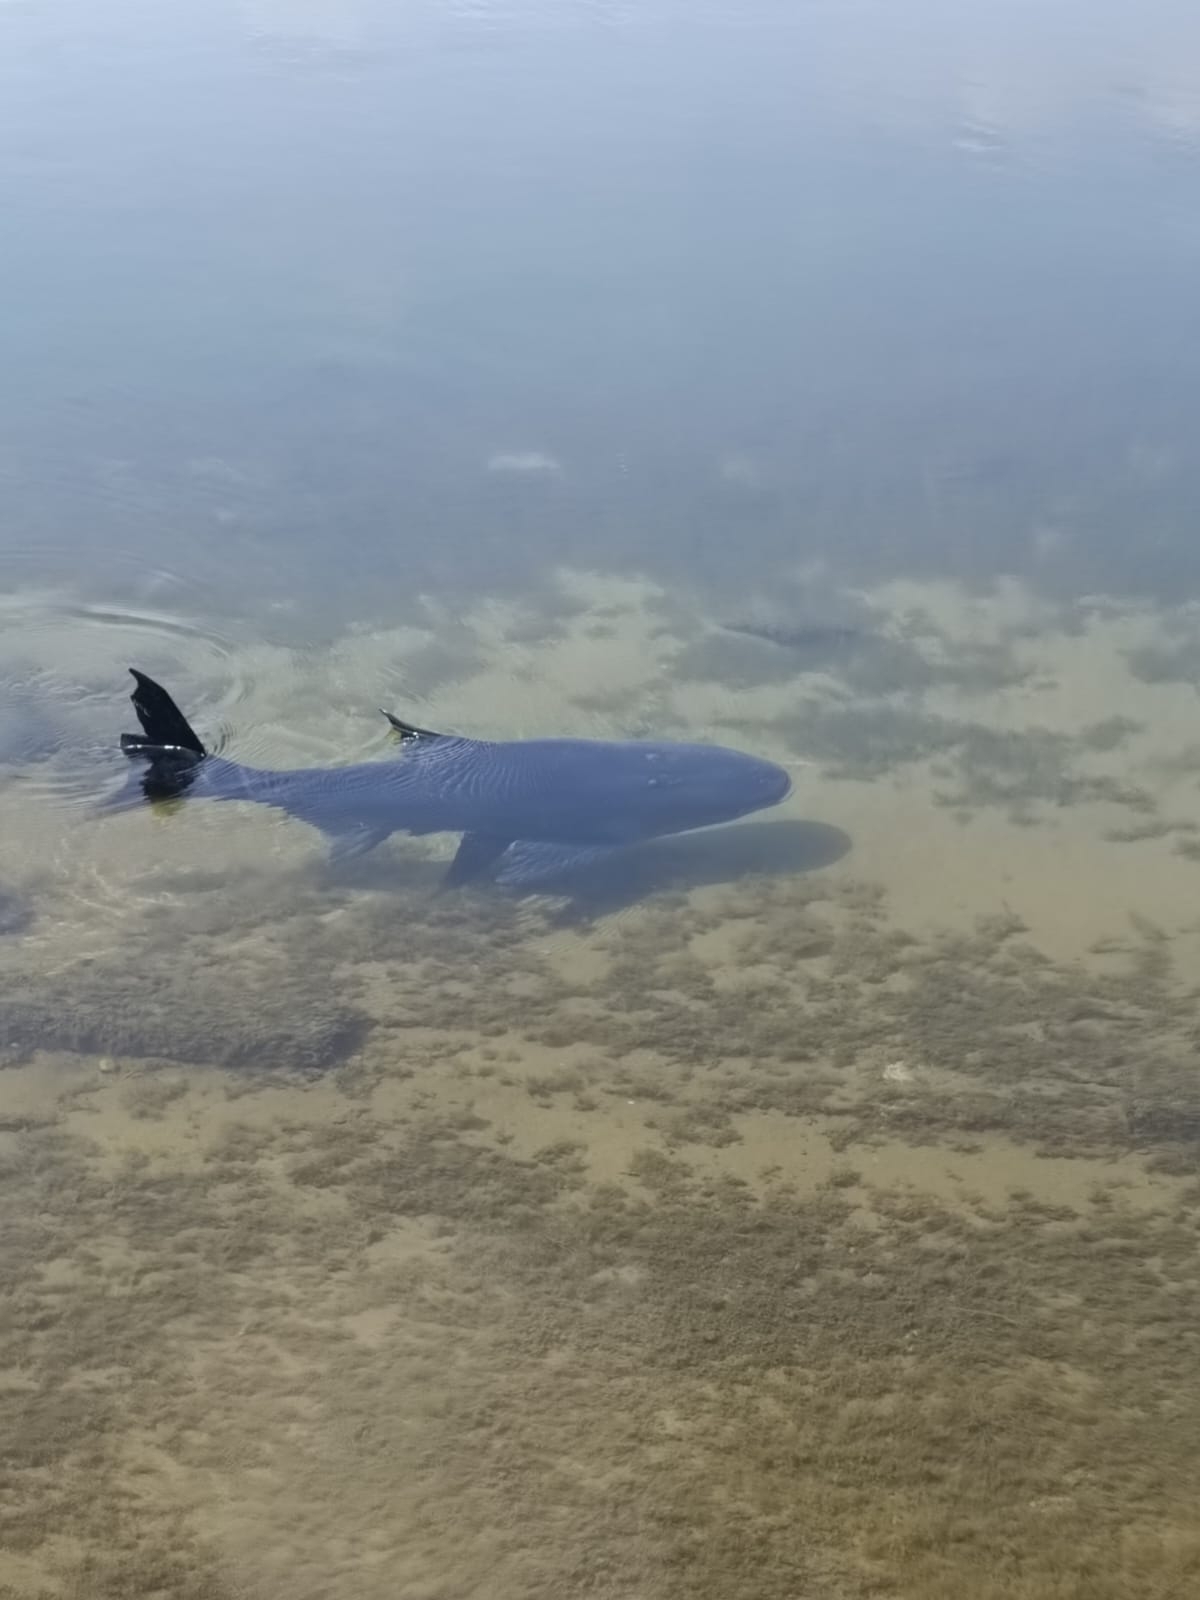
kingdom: Animalia
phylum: Chordata
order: Cypriniformes
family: Cyprinidae
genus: Hypophthalmichthys
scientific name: Hypophthalmichthys nobilis
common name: Bighead carp
